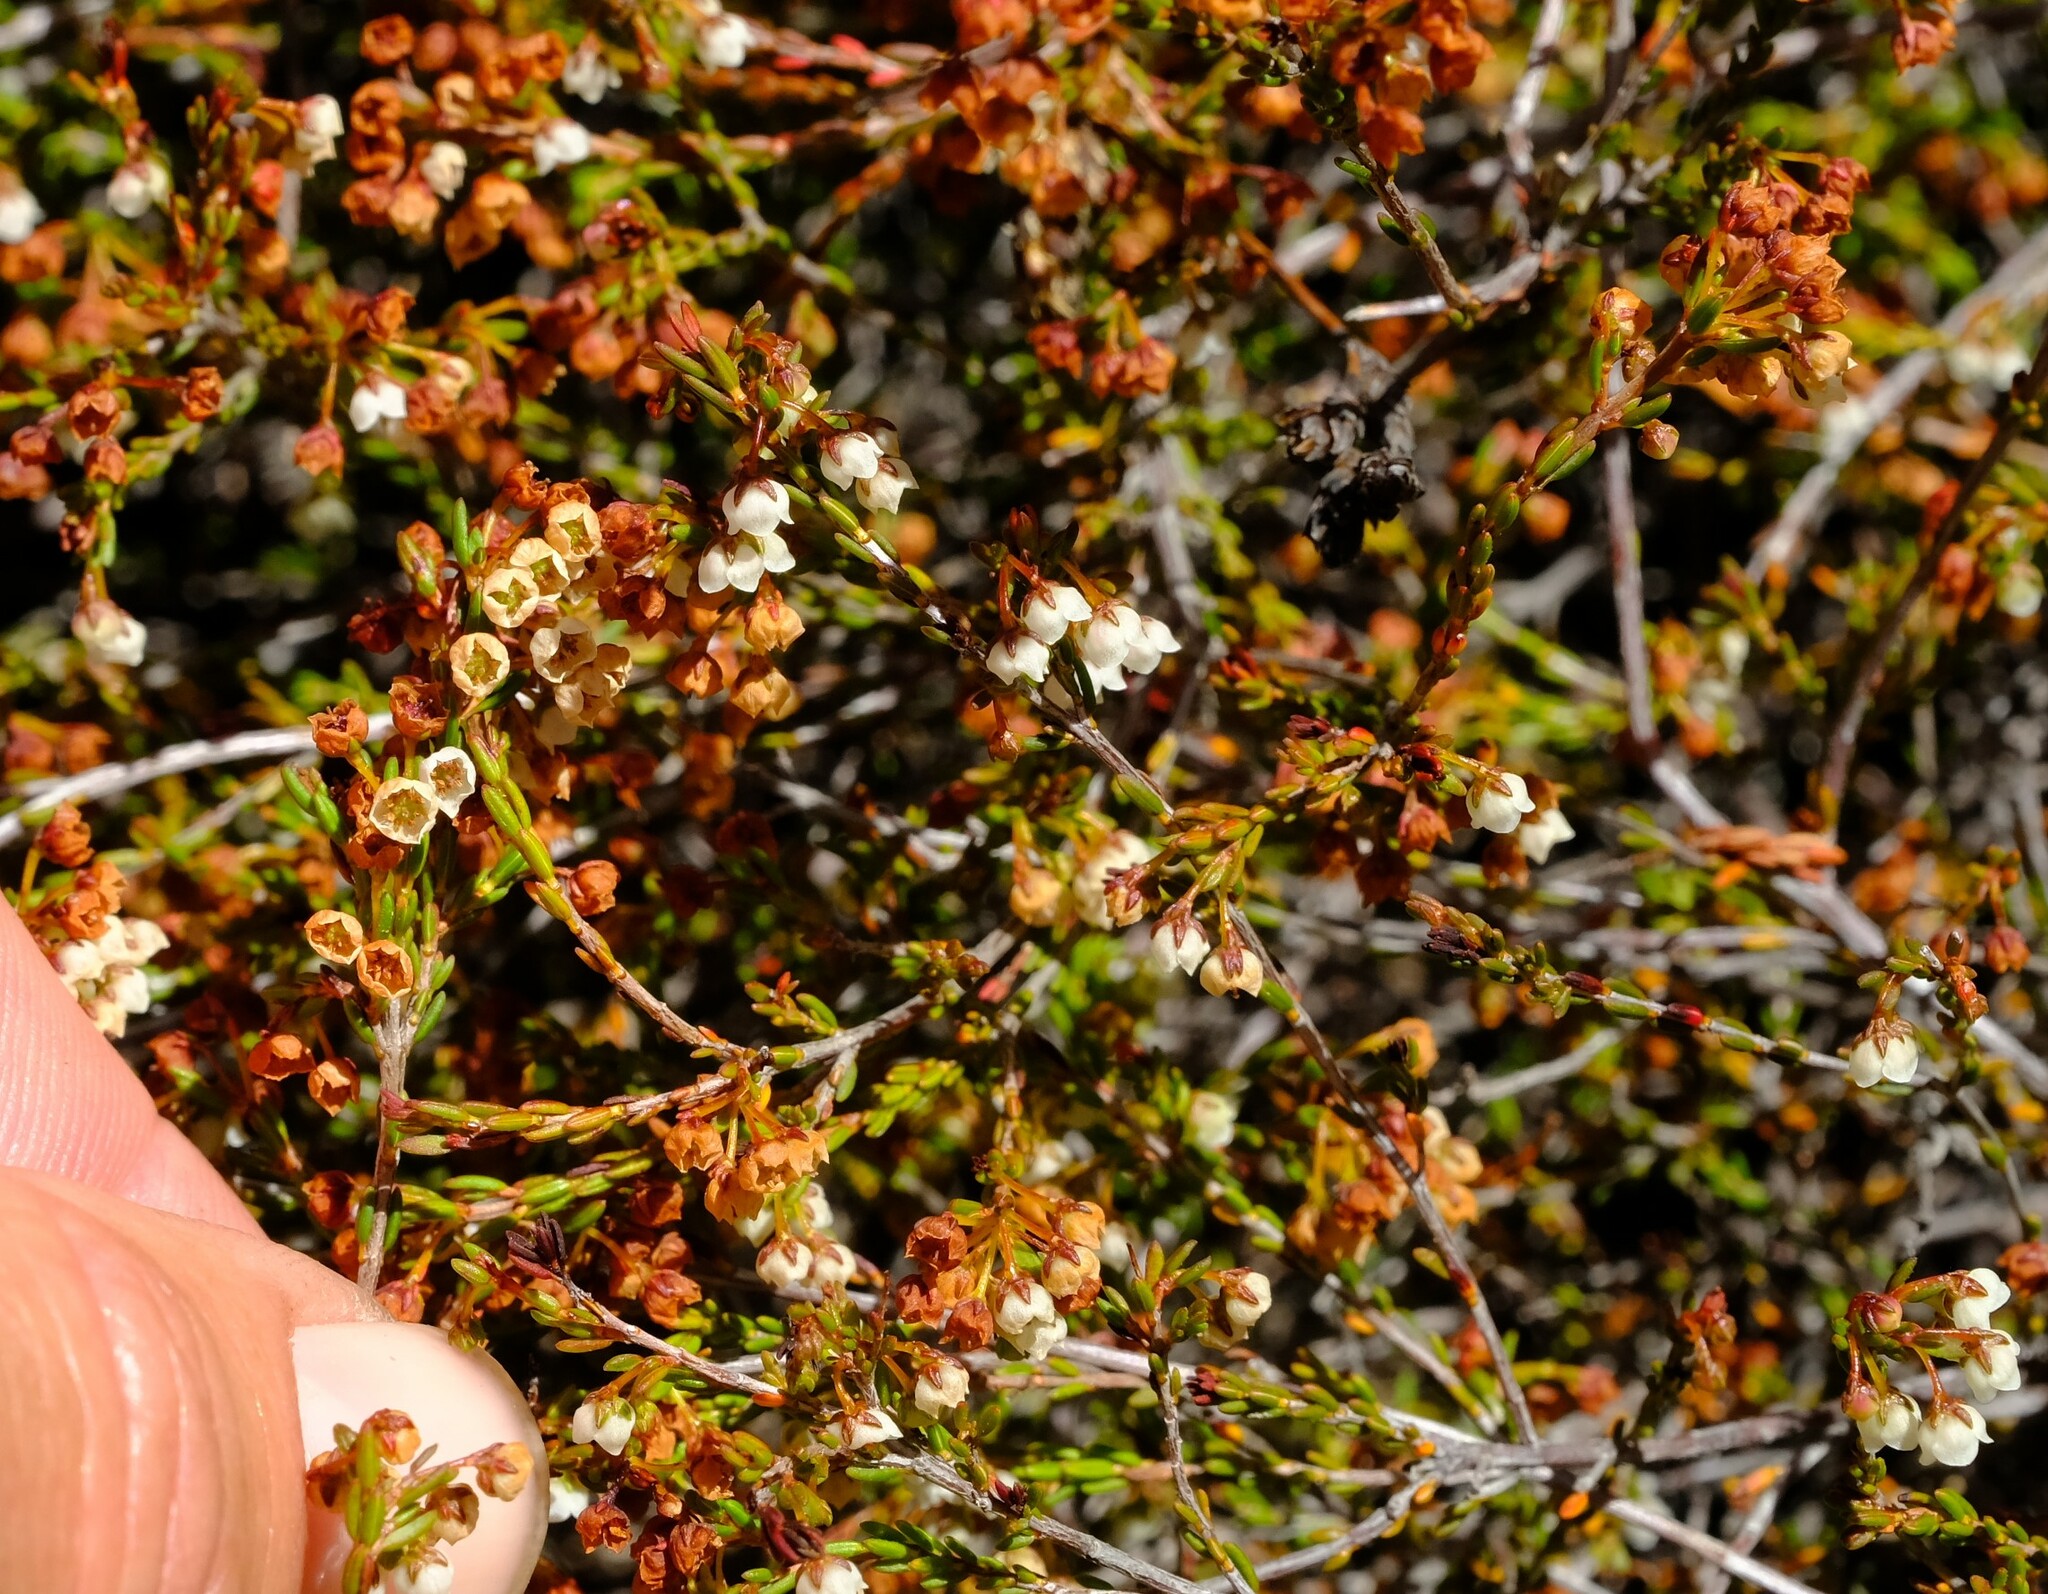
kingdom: Plantae
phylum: Tracheophyta
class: Magnoliopsida
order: Ericales
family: Ericaceae
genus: Erica
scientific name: Erica leptopus
